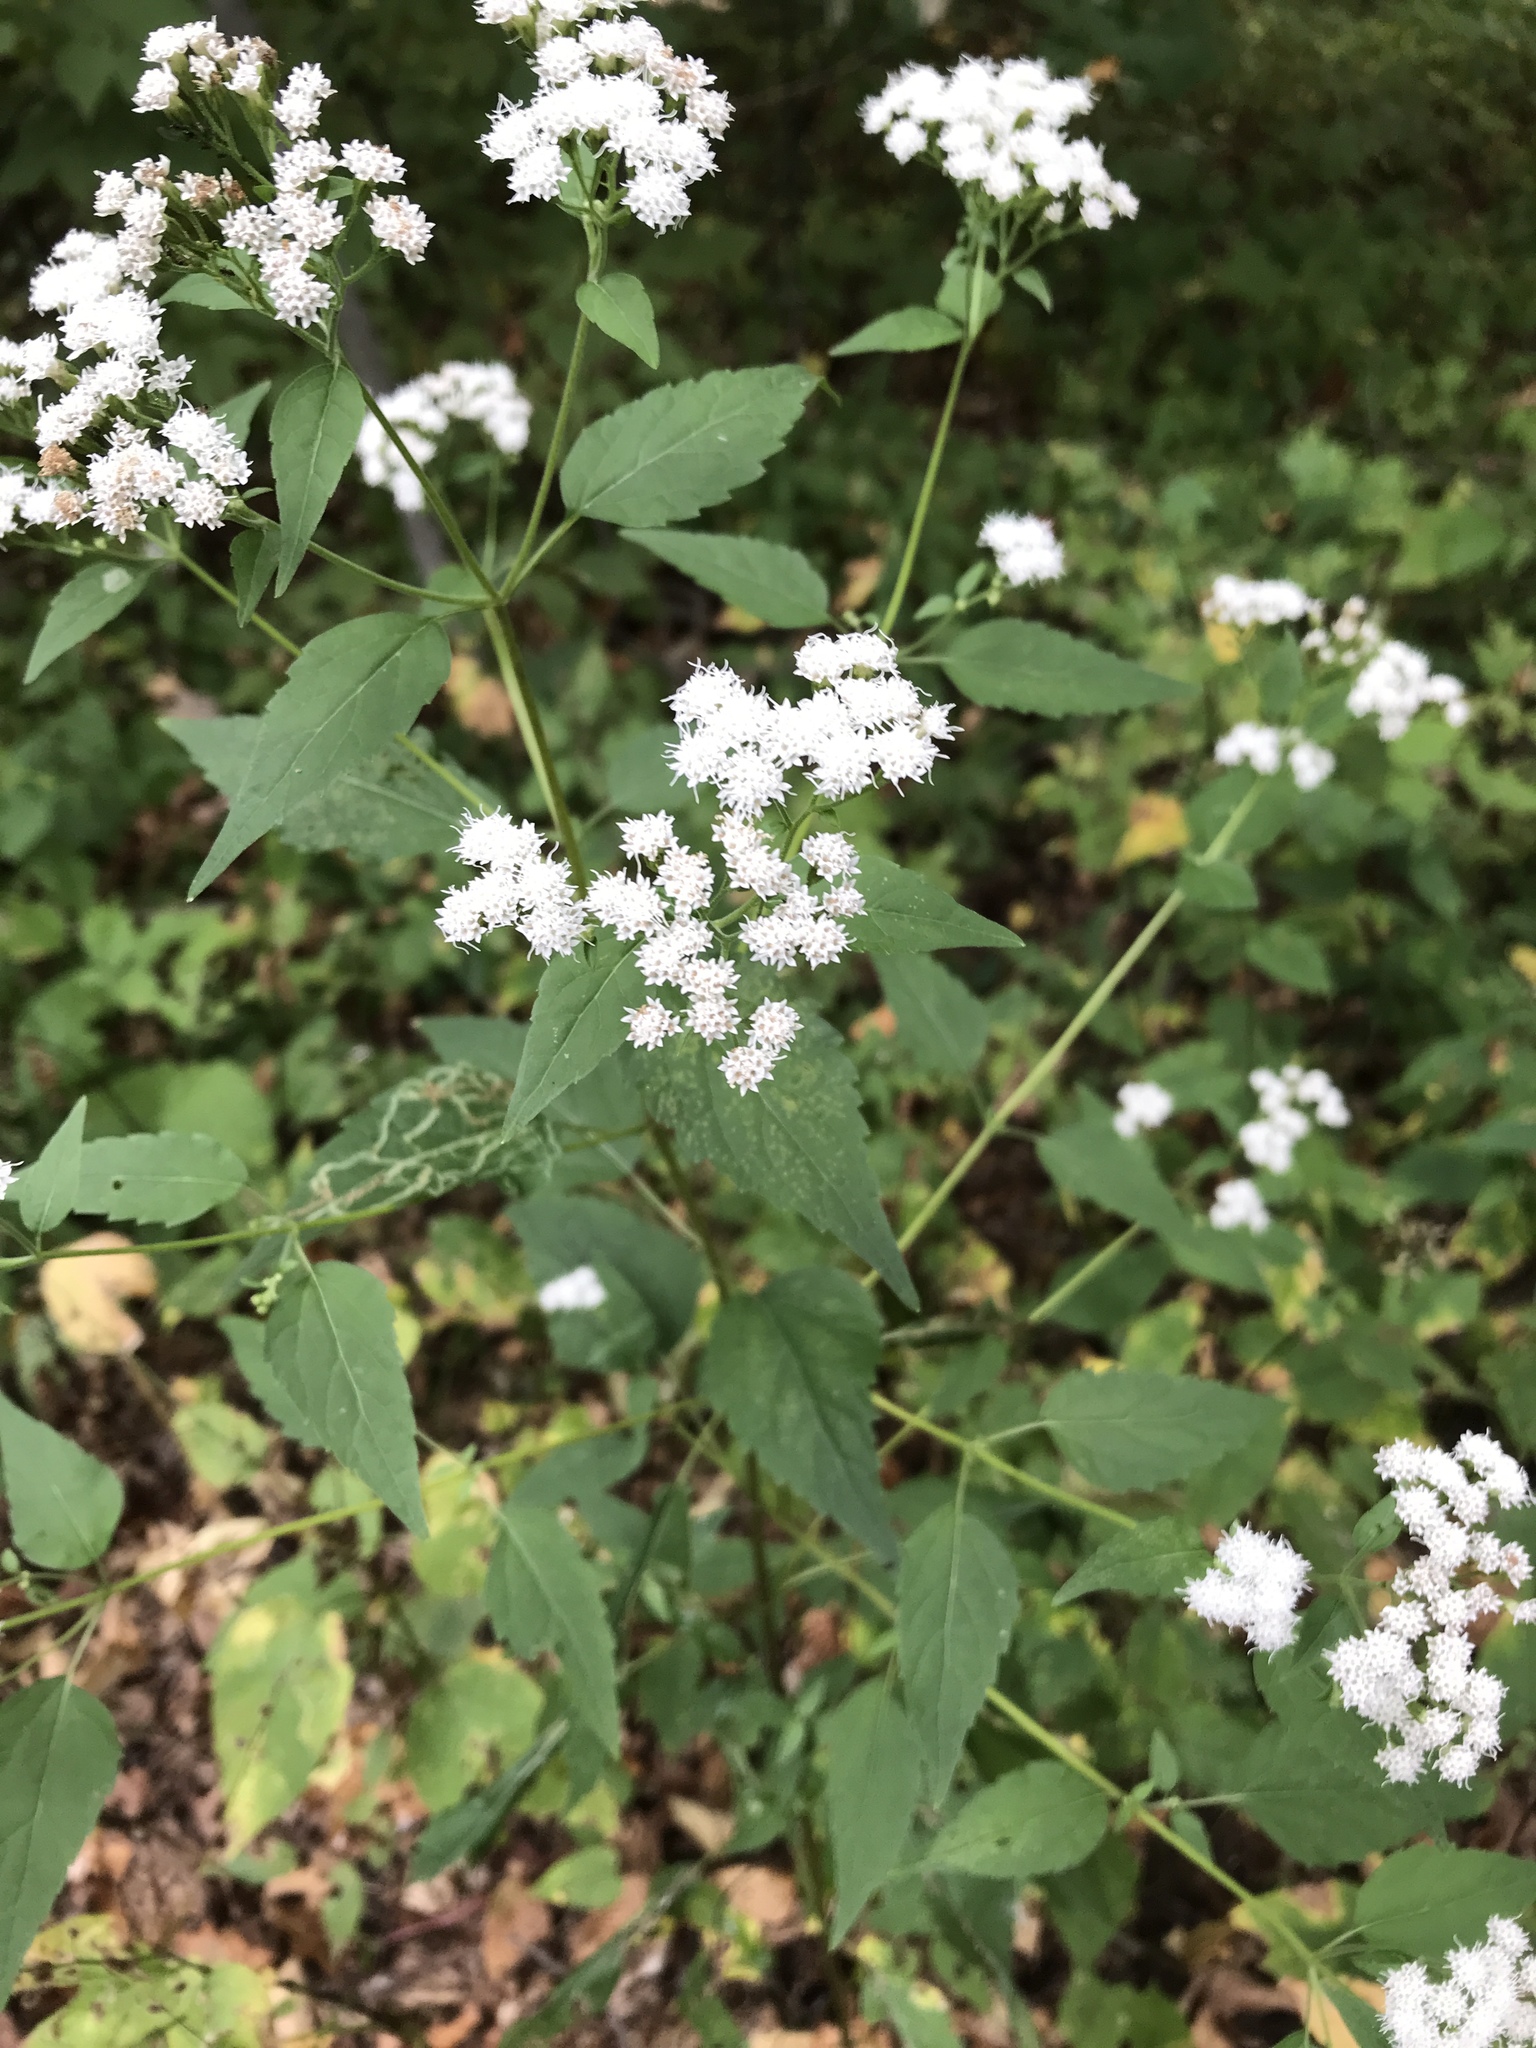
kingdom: Plantae
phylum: Tracheophyta
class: Magnoliopsida
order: Asterales
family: Asteraceae
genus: Ageratina
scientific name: Ageratina altissima
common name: White snakeroot
